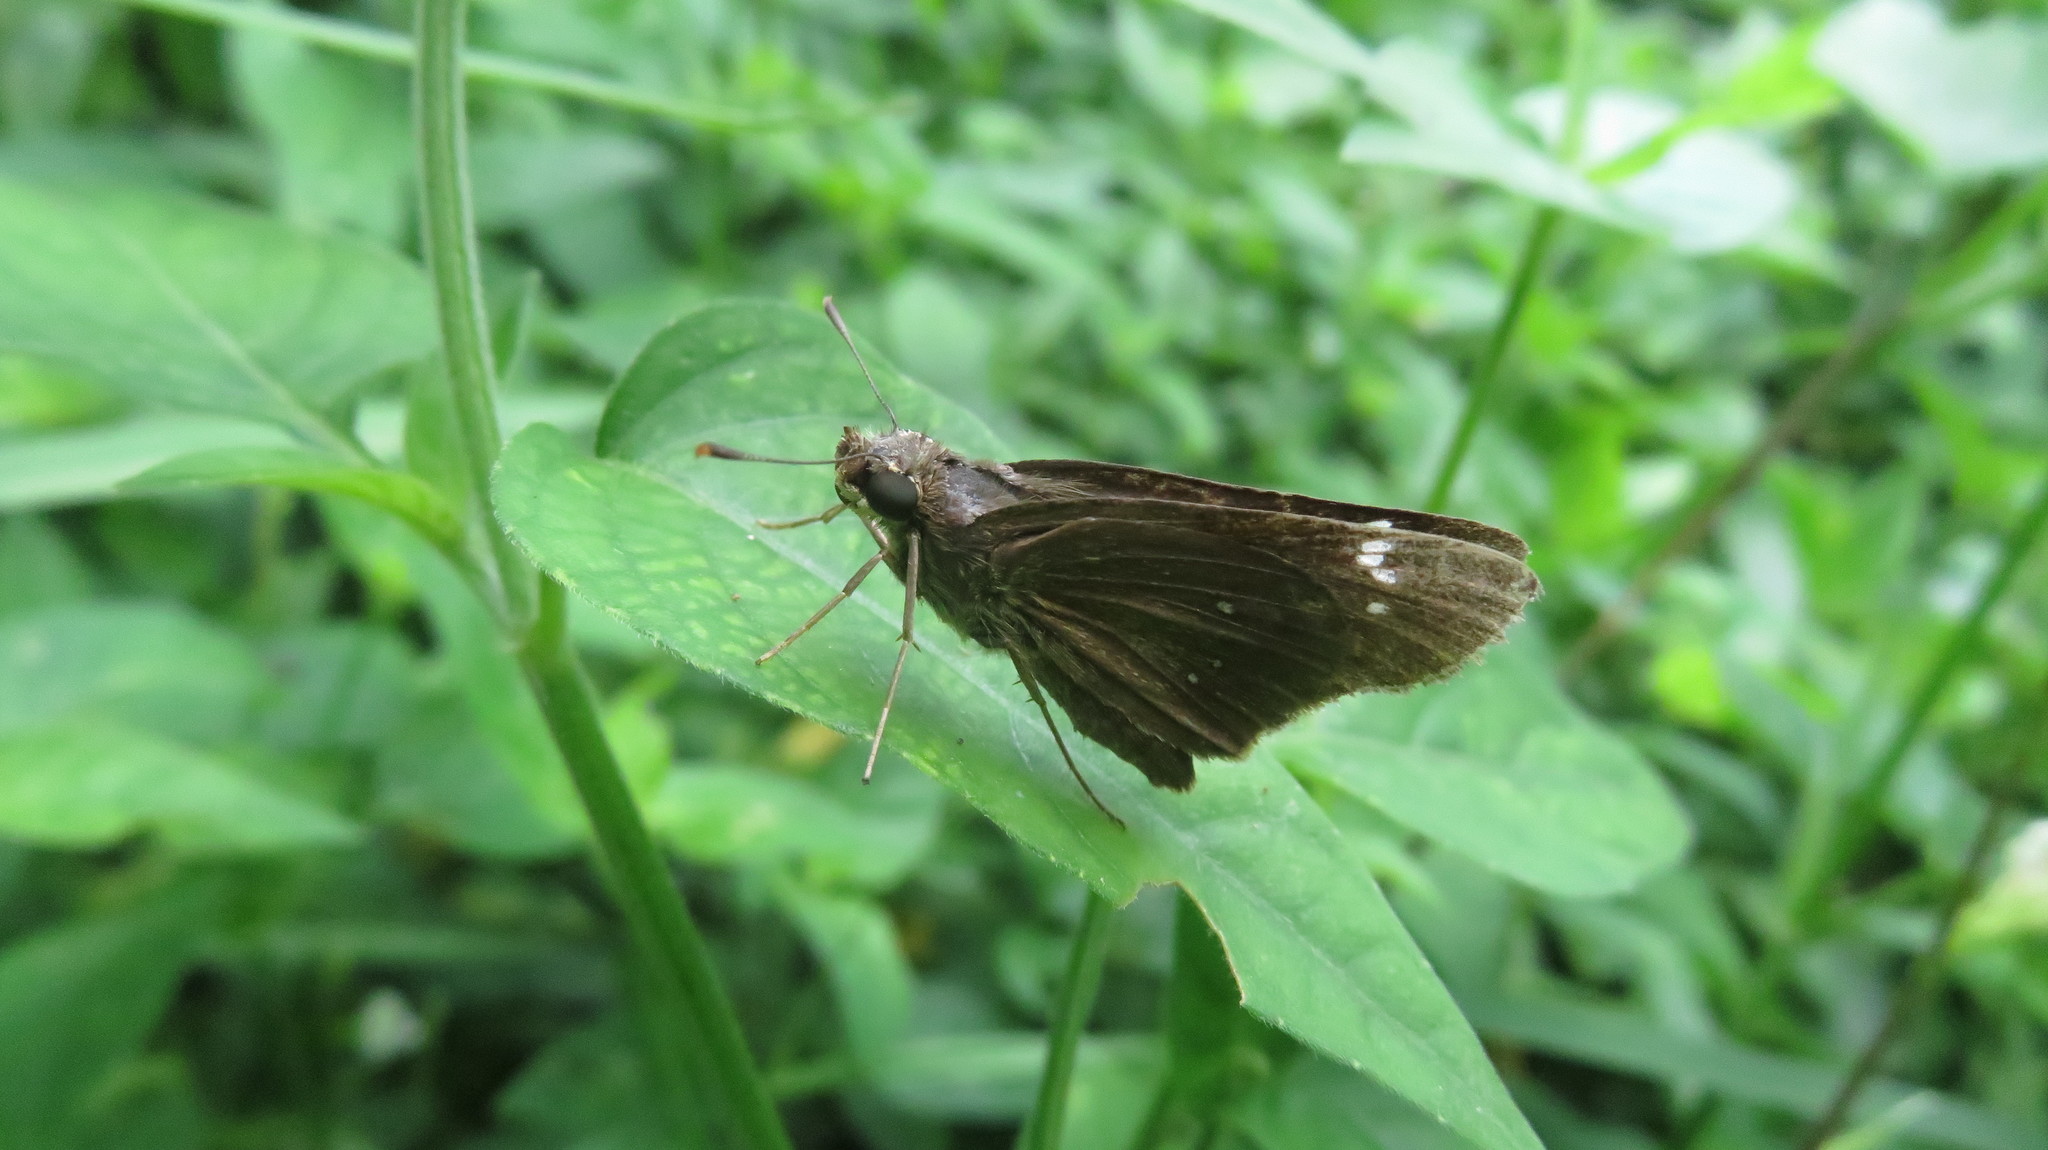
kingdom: Animalia
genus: Torbenlarsenia
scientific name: Torbenlarsenia
